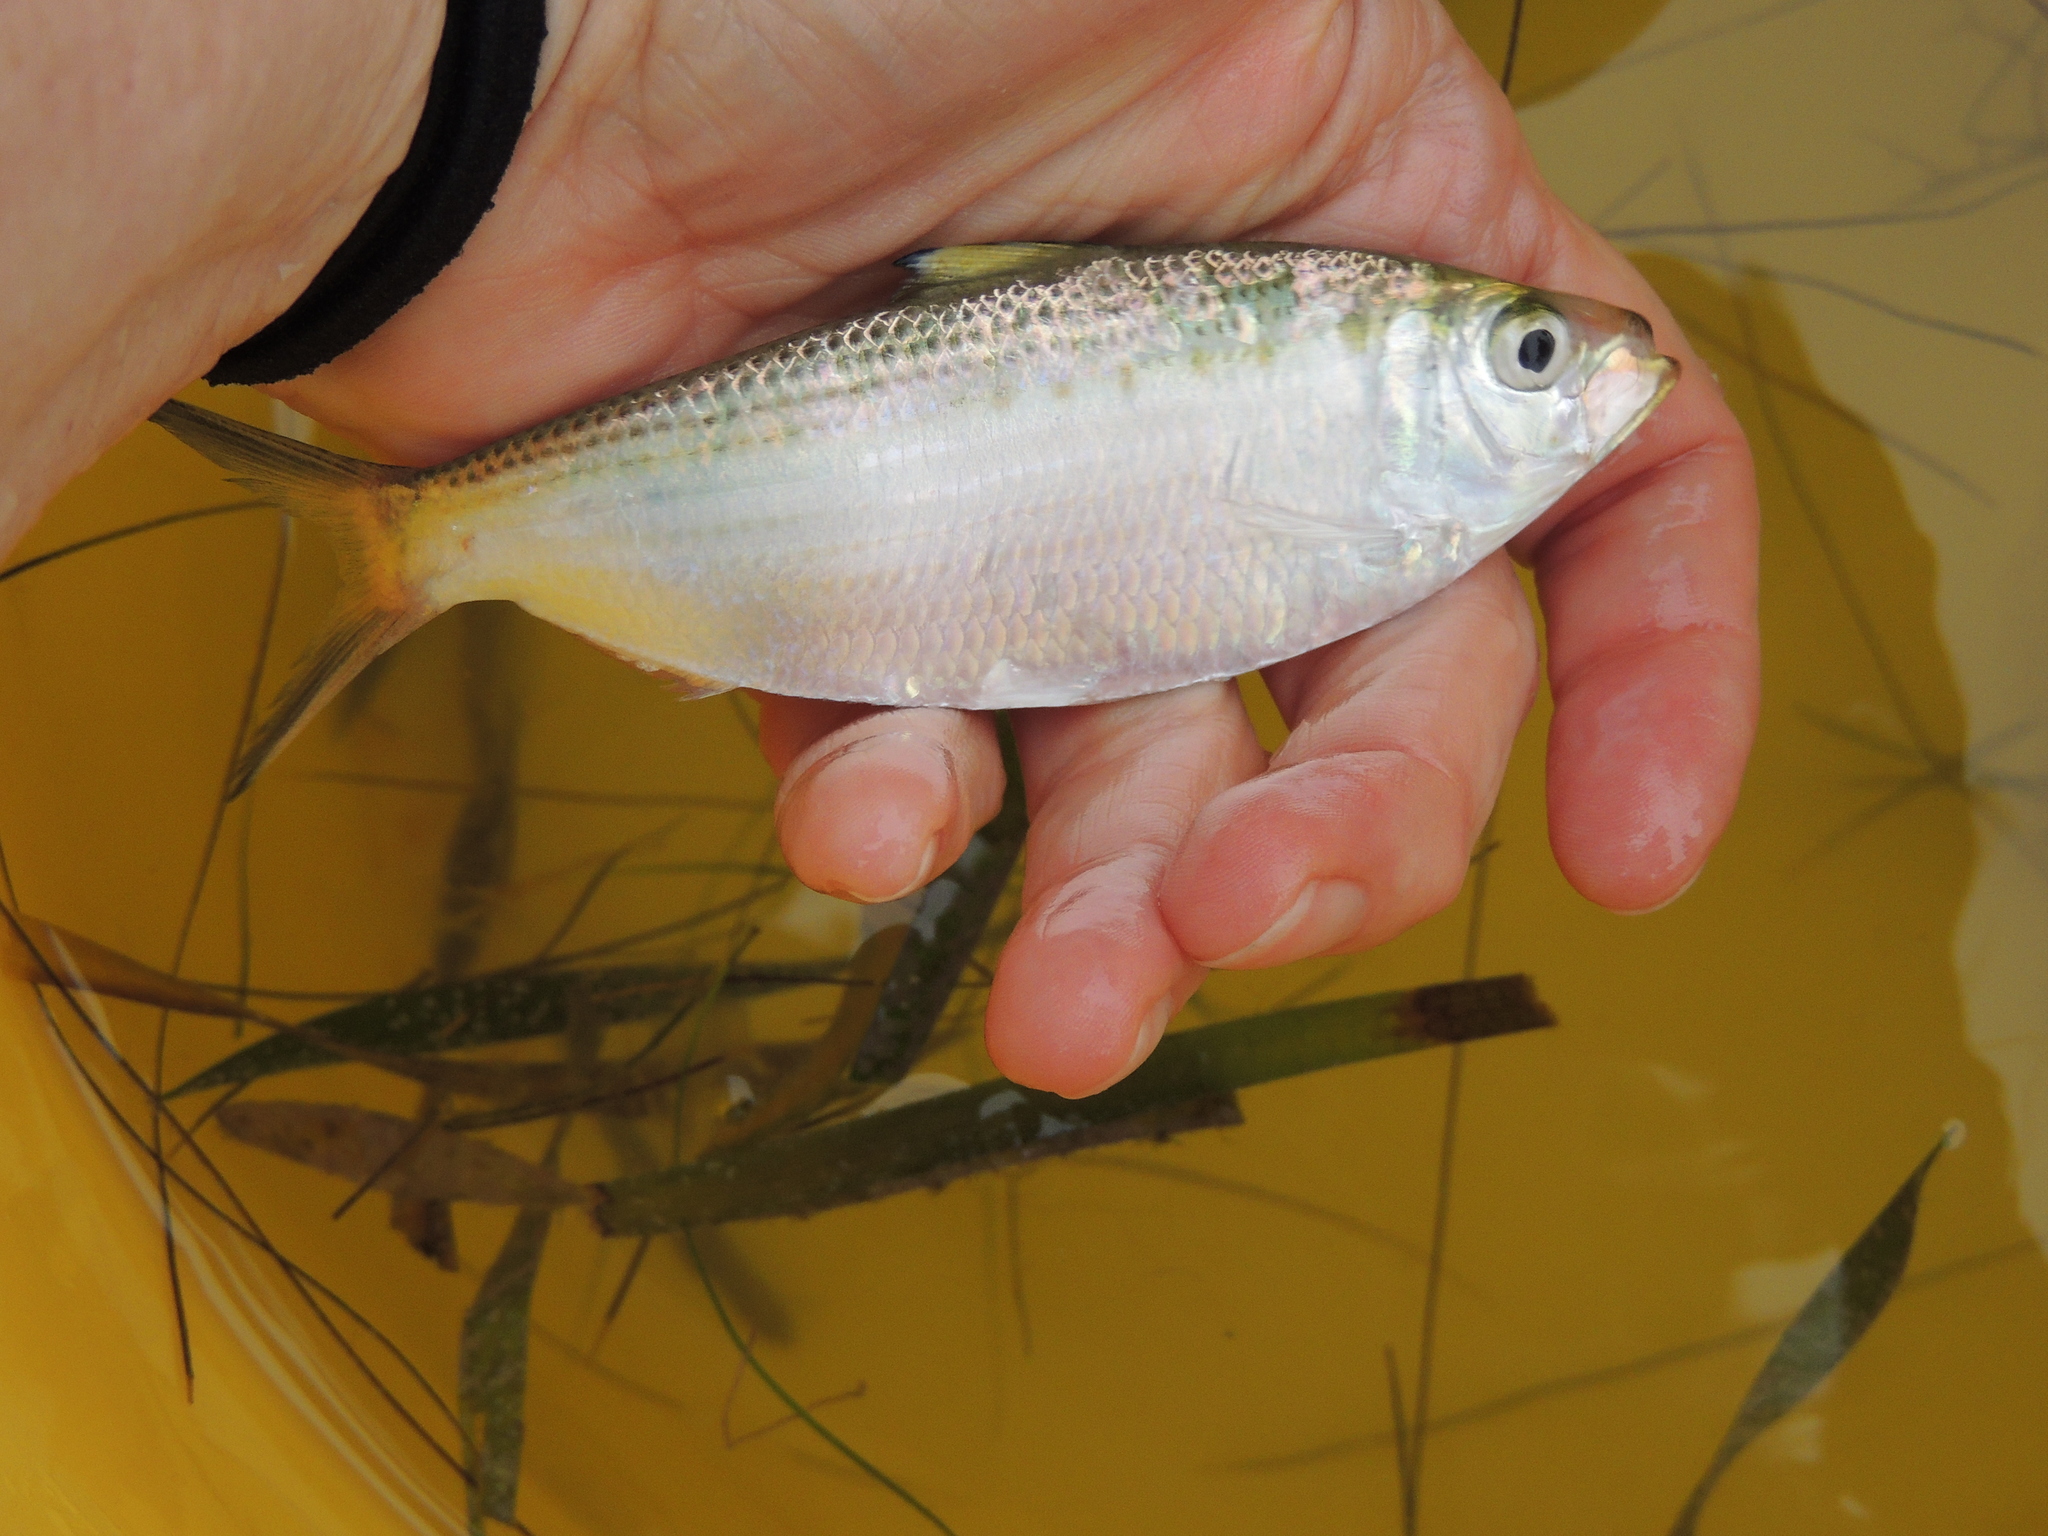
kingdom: Animalia
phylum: Chordata
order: Clupeiformes
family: Clupeidae
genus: Opisthonema
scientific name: Opisthonema oglinum
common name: Thread herring
